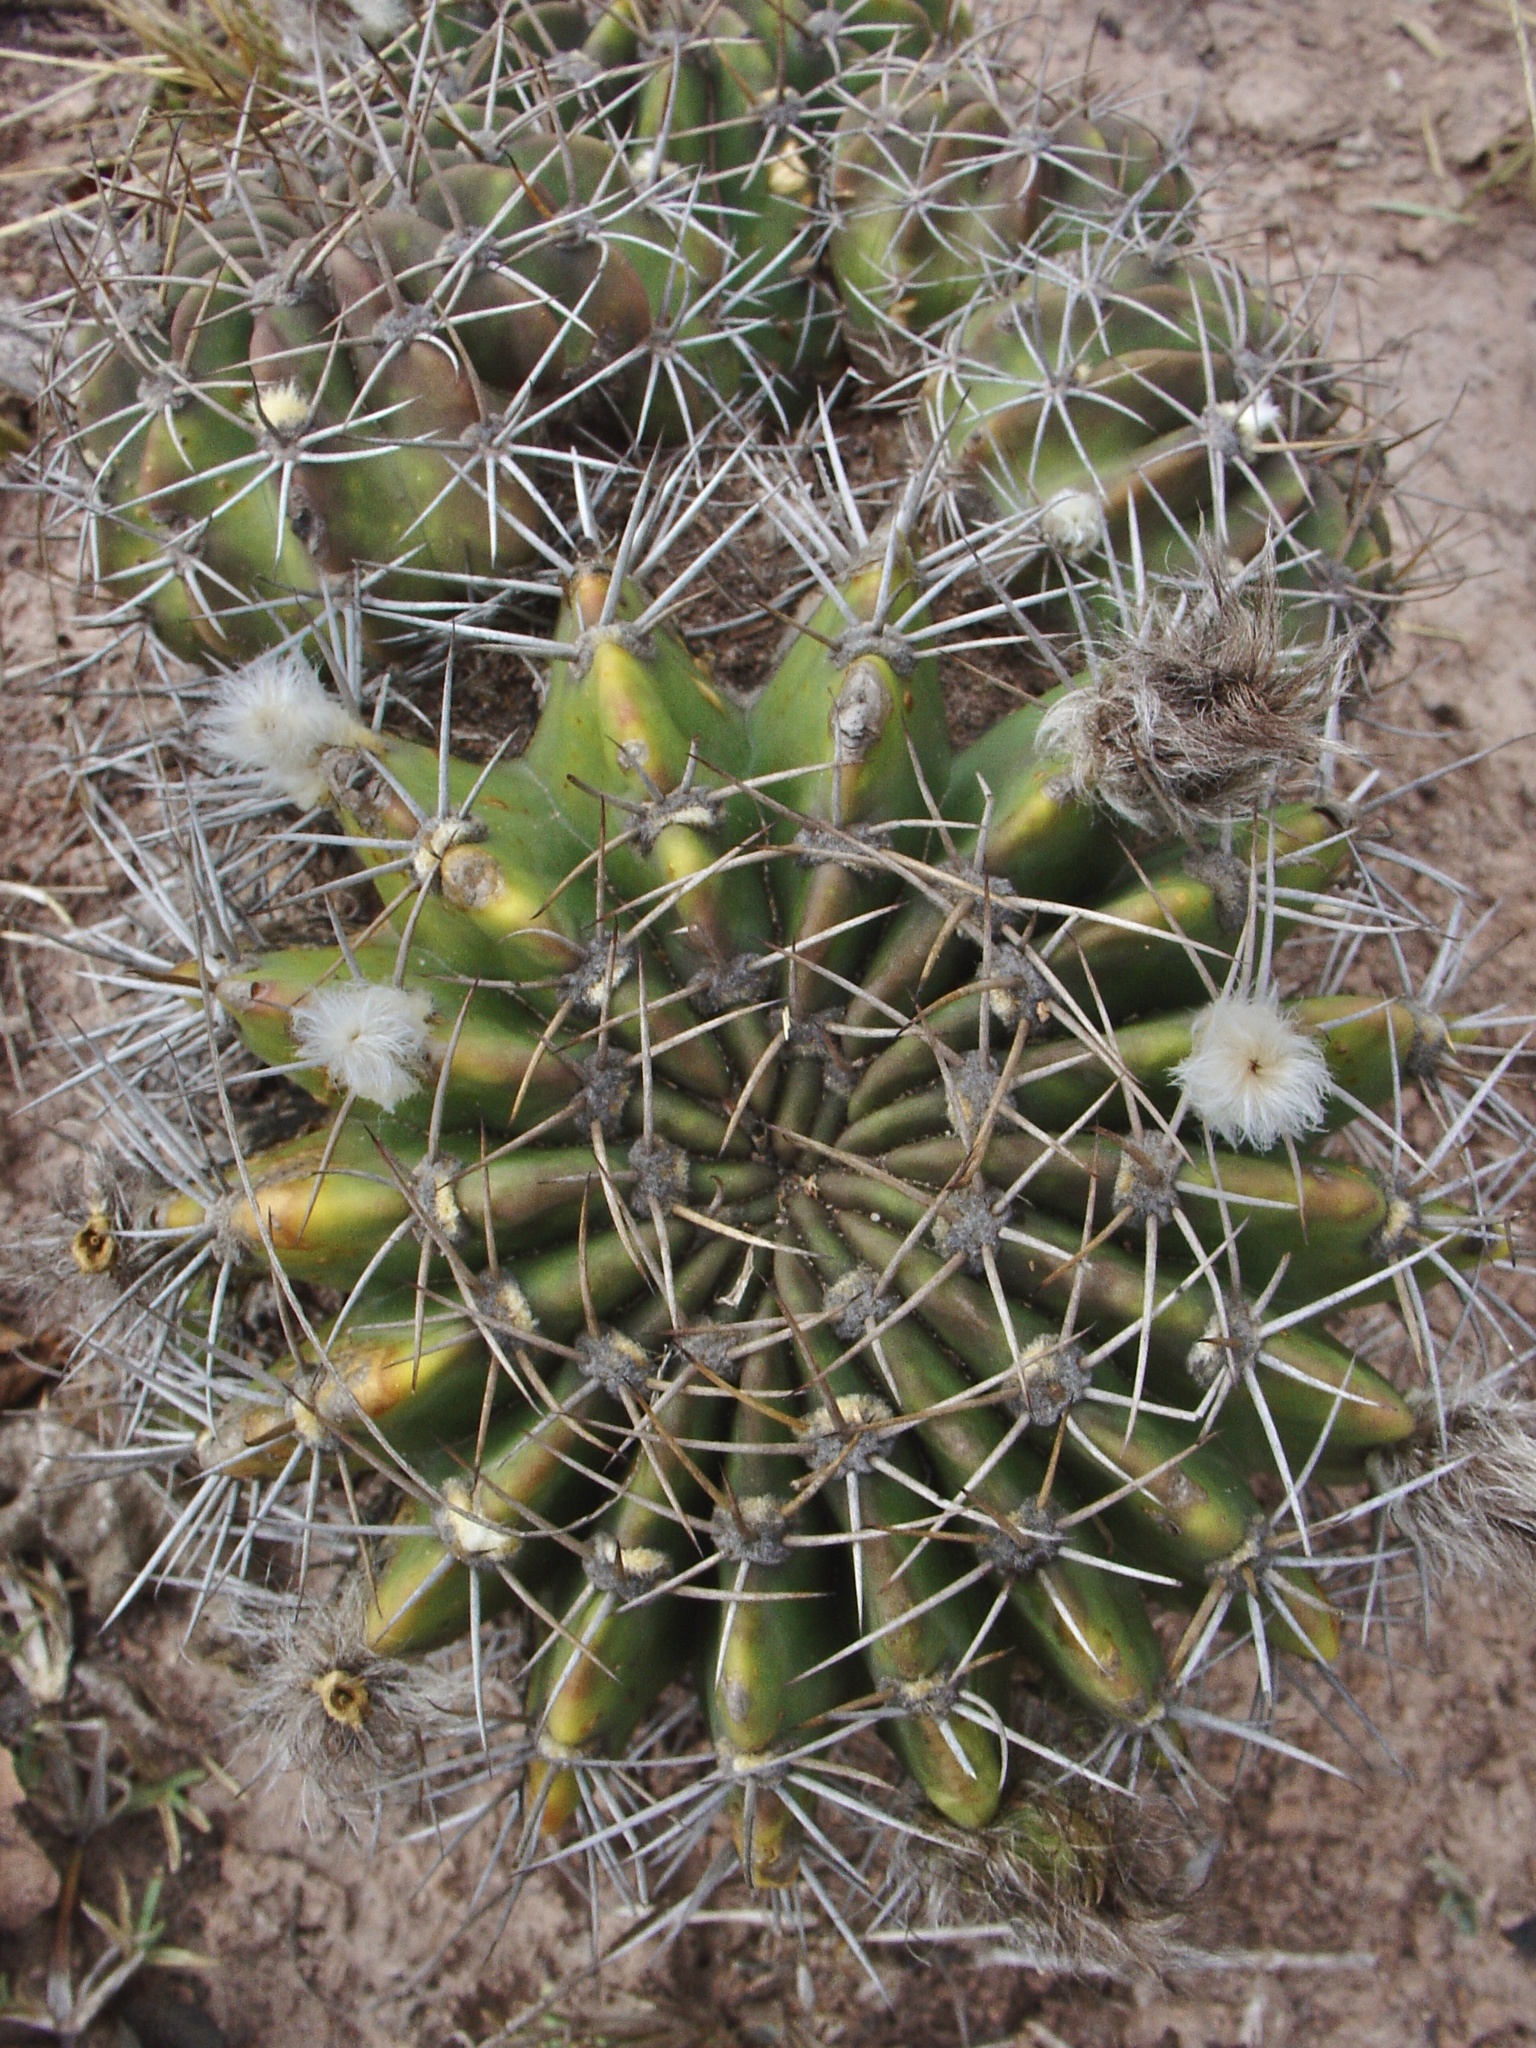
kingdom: Plantae
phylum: Tracheophyta
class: Magnoliopsida
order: Caryophyllales
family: Cactaceae
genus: Echinopsis
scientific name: Echinopsis rojasii
